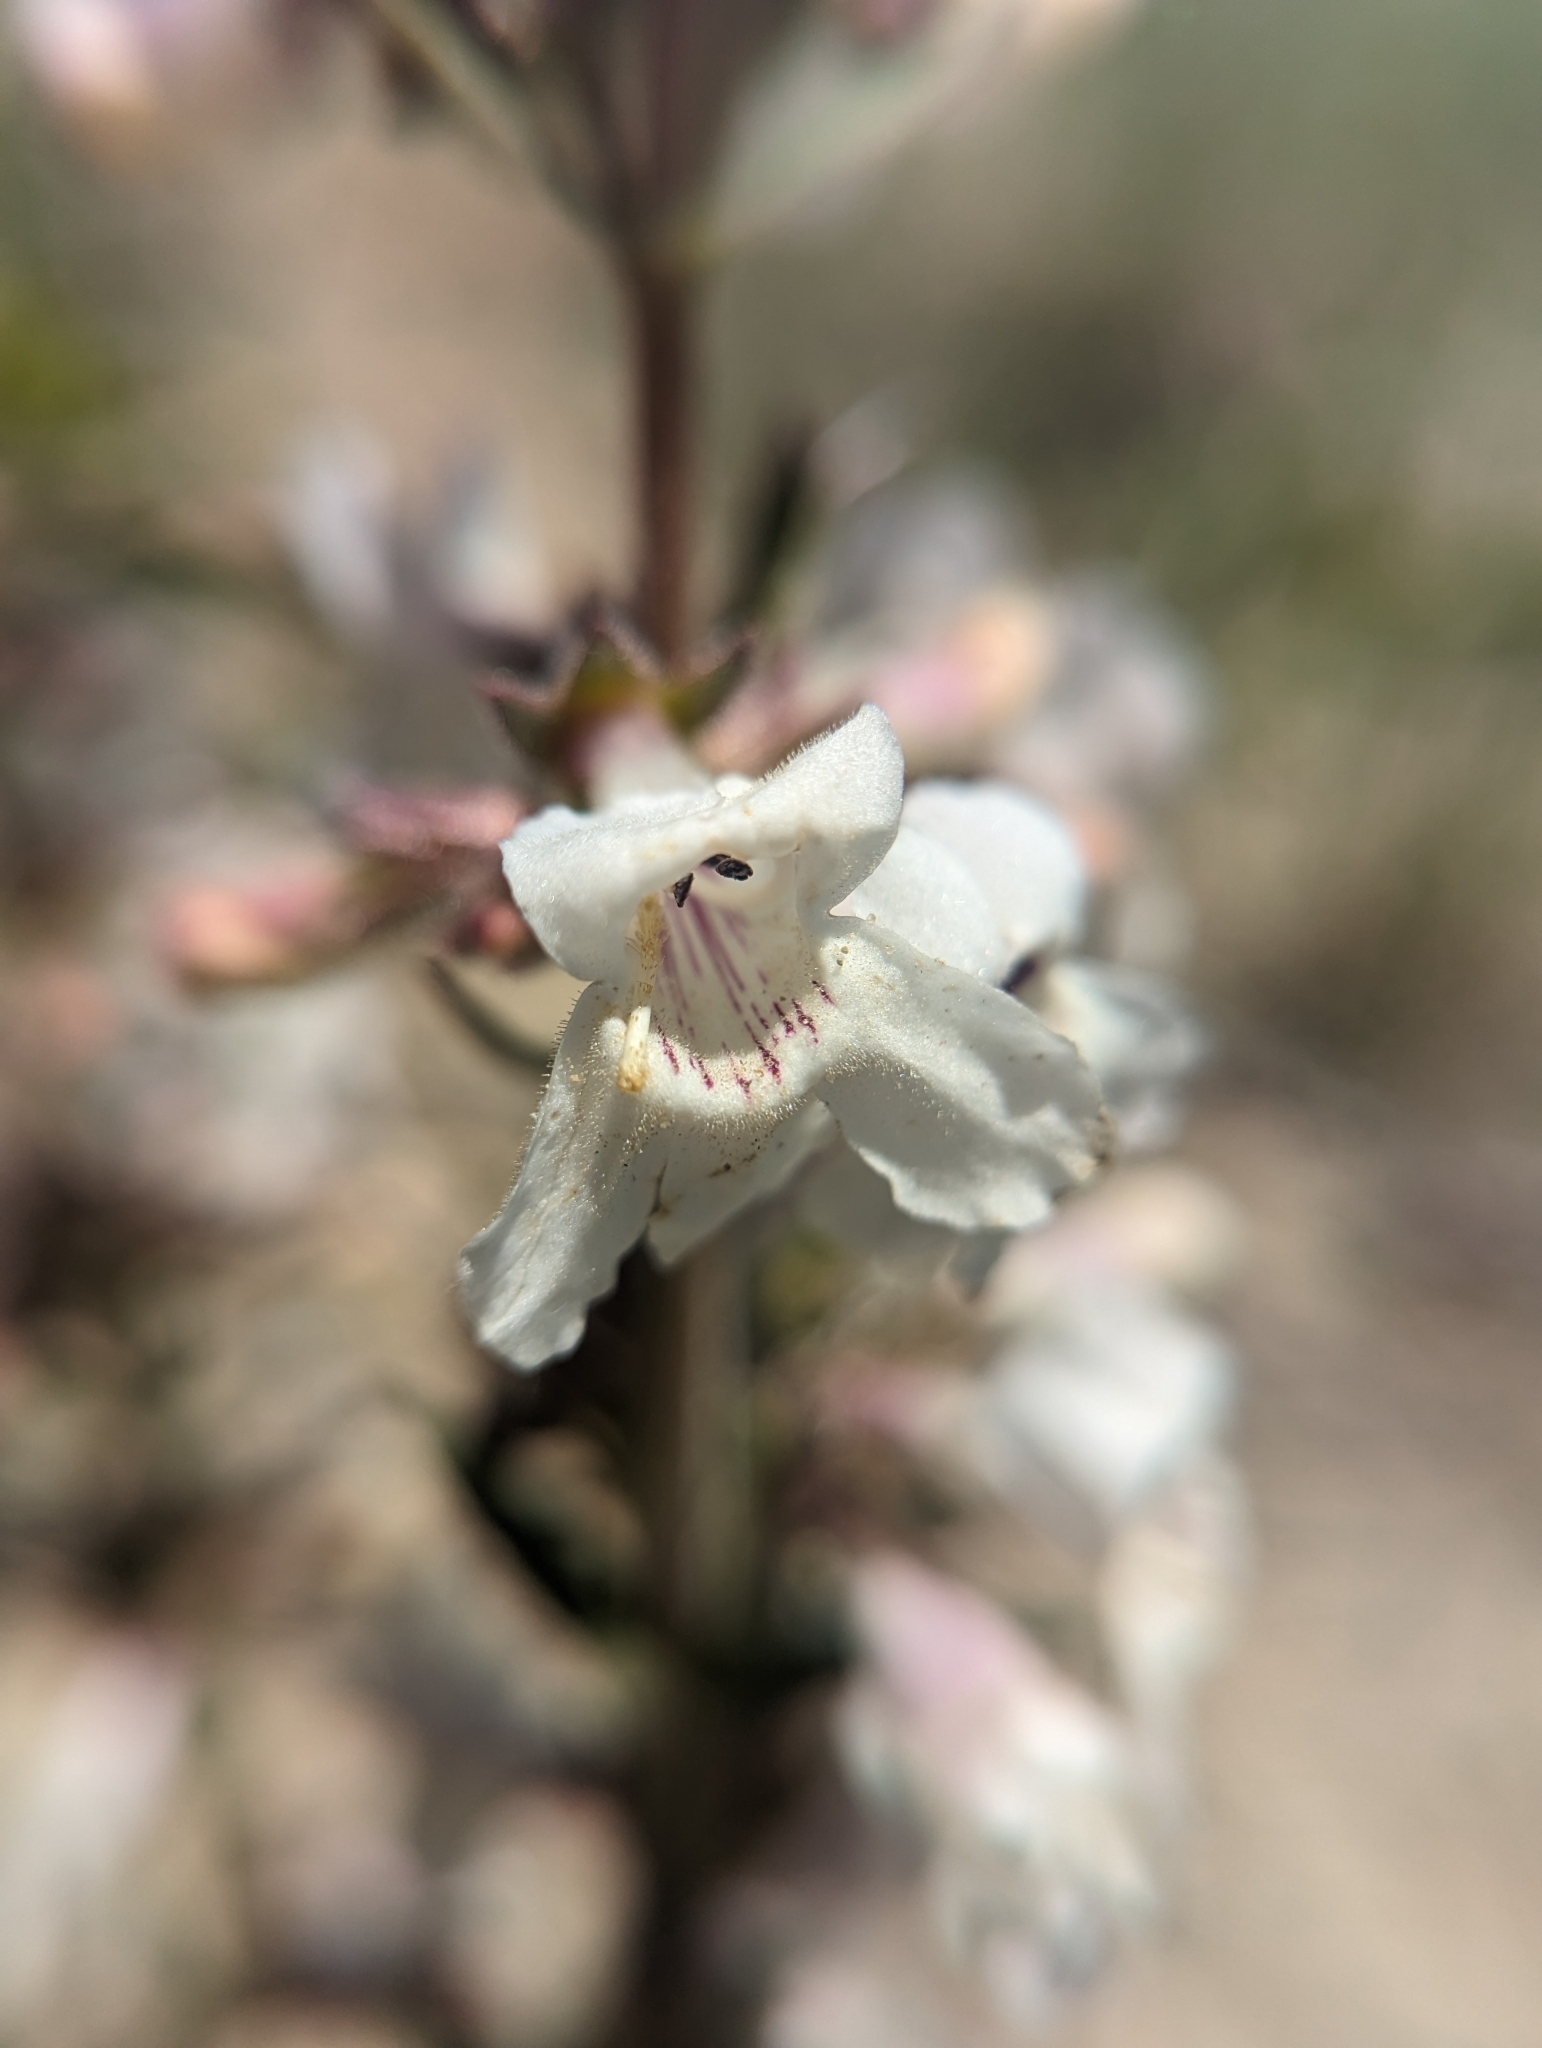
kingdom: Plantae
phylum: Tracheophyta
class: Magnoliopsida
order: Lamiales
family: Plantaginaceae
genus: Penstemon
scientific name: Penstemon albidus
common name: White beardtongue
